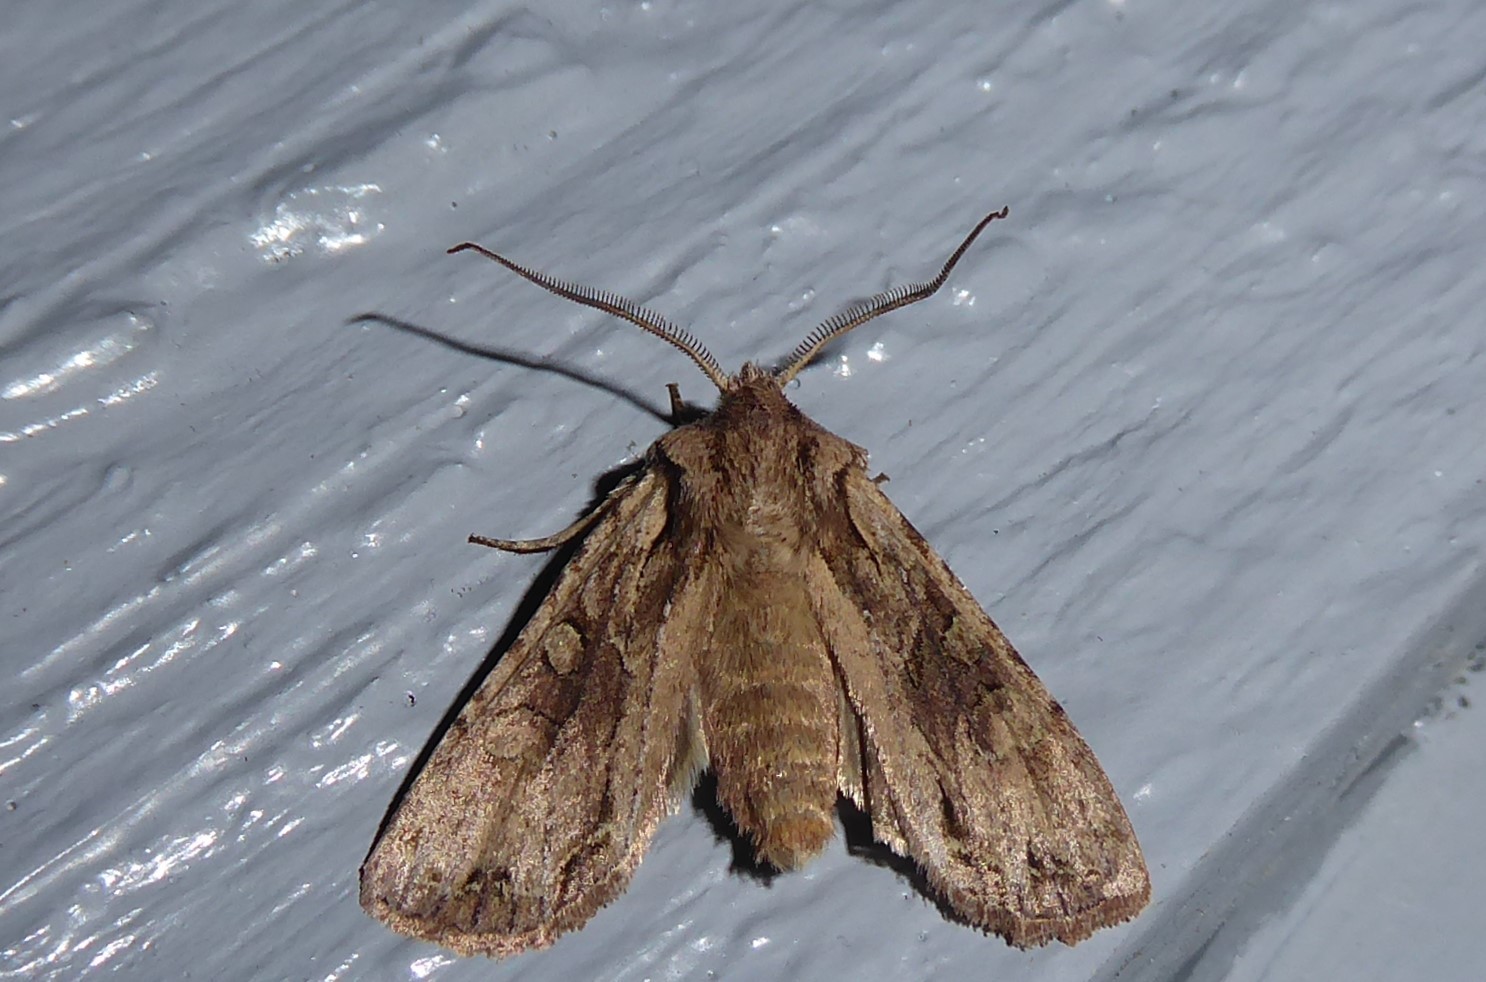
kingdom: Animalia
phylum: Arthropoda
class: Insecta
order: Lepidoptera
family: Noctuidae
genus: Ichneutica
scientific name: Ichneutica
